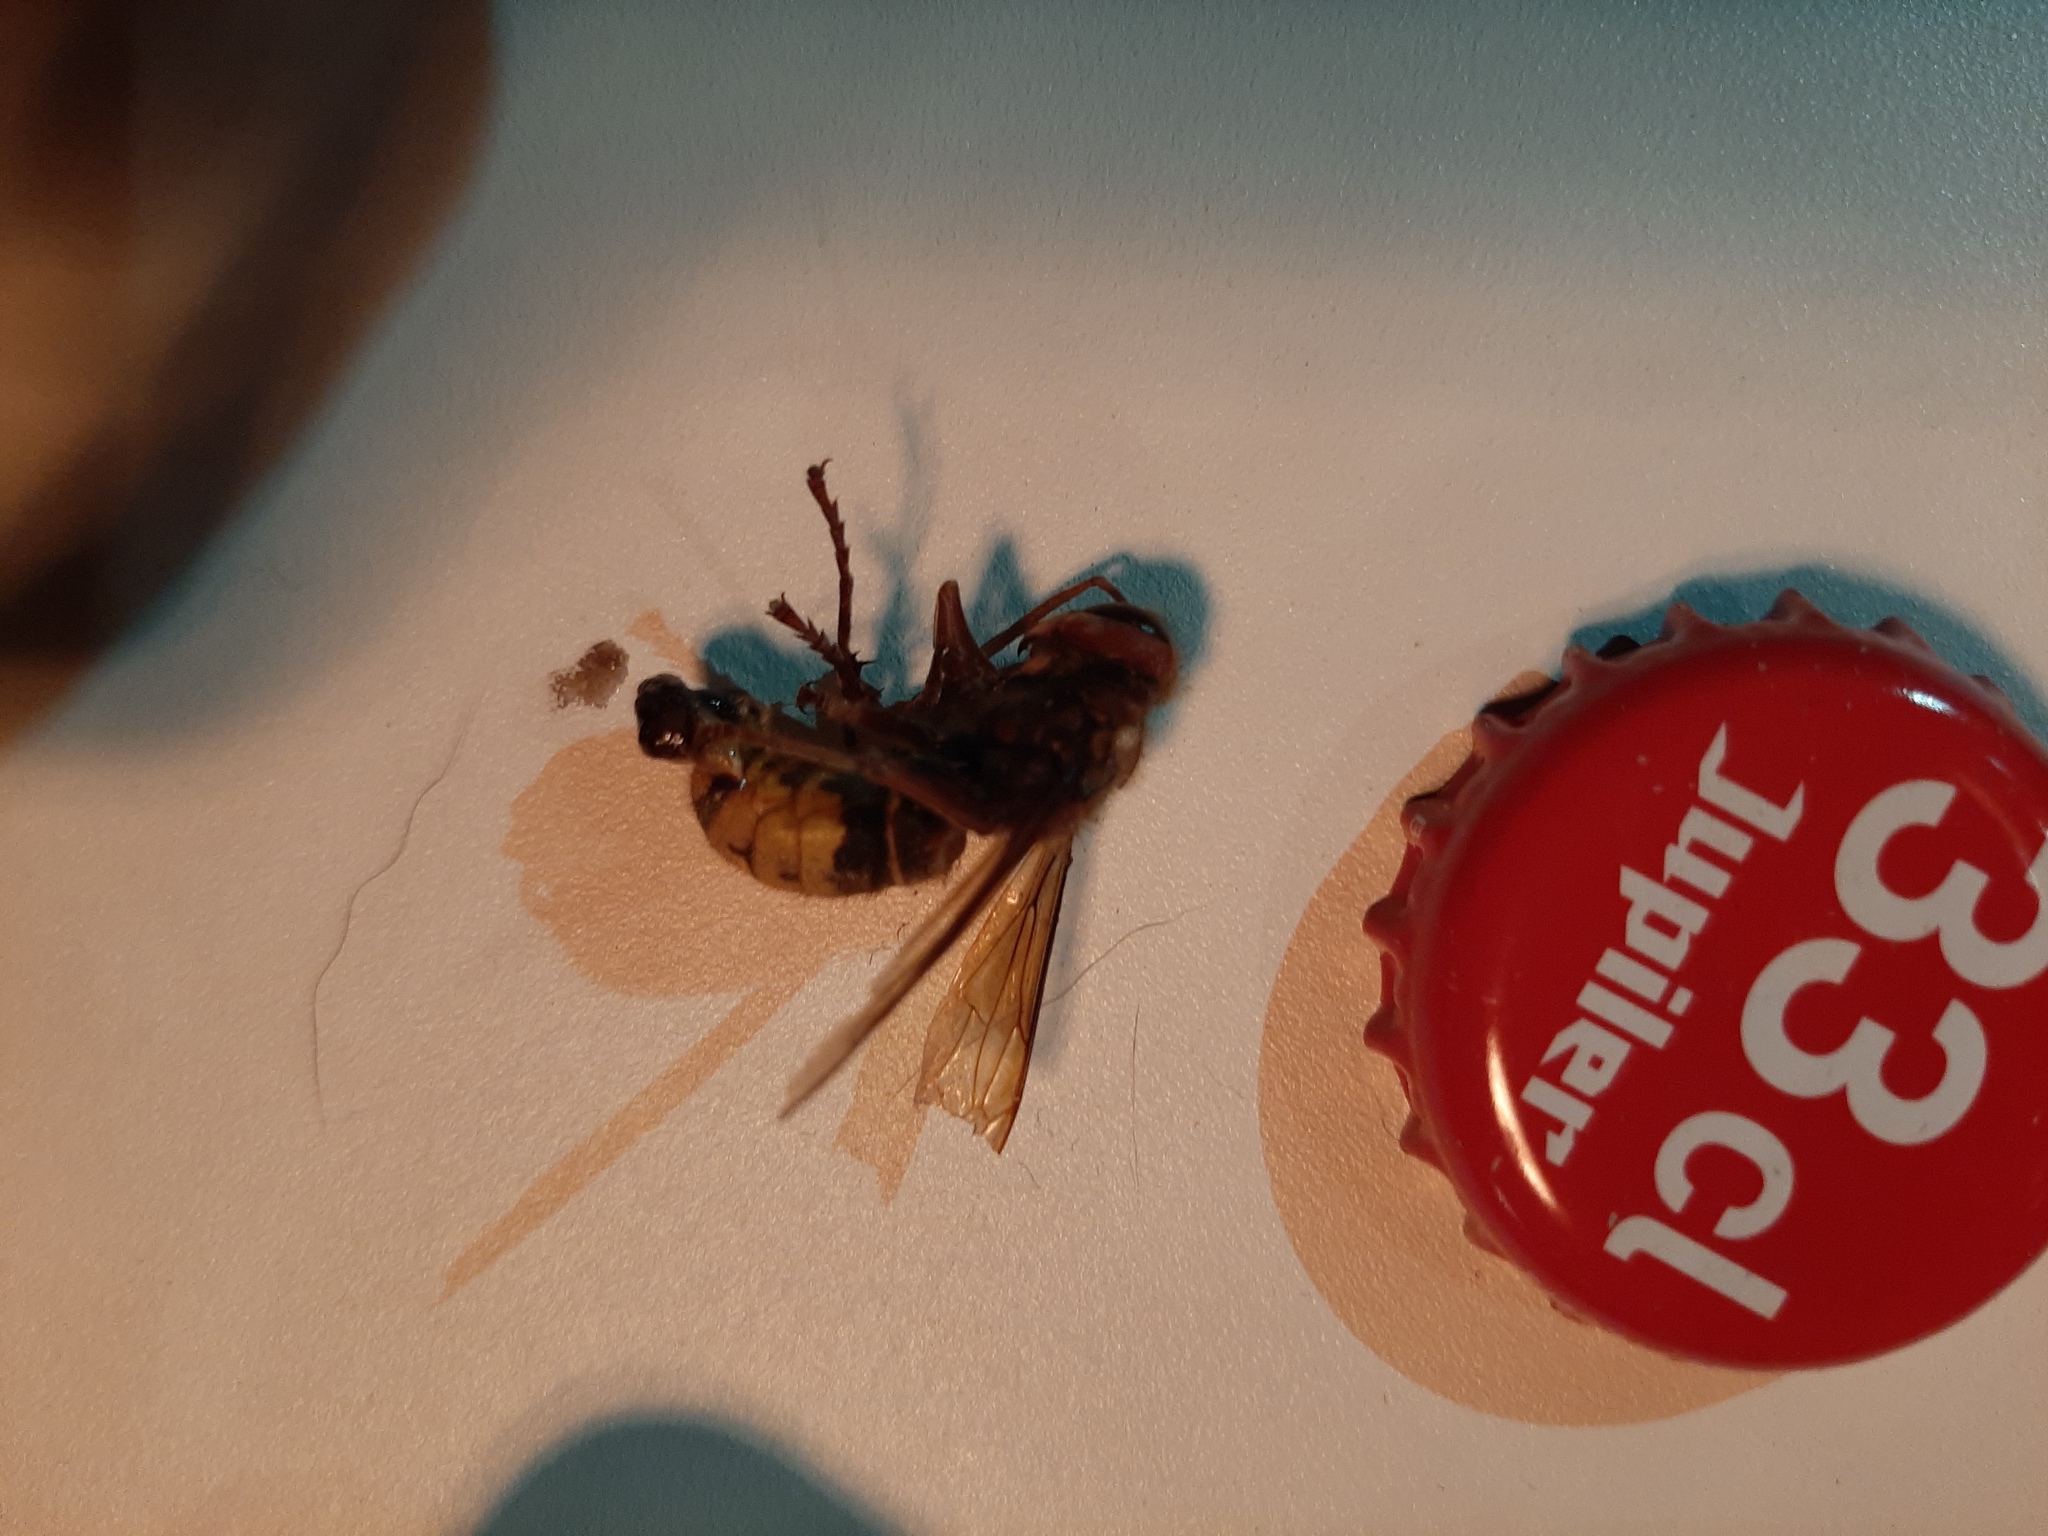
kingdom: Animalia
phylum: Arthropoda
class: Insecta
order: Hymenoptera
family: Vespidae
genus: Vespa
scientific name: Vespa crabro
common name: Hornet
